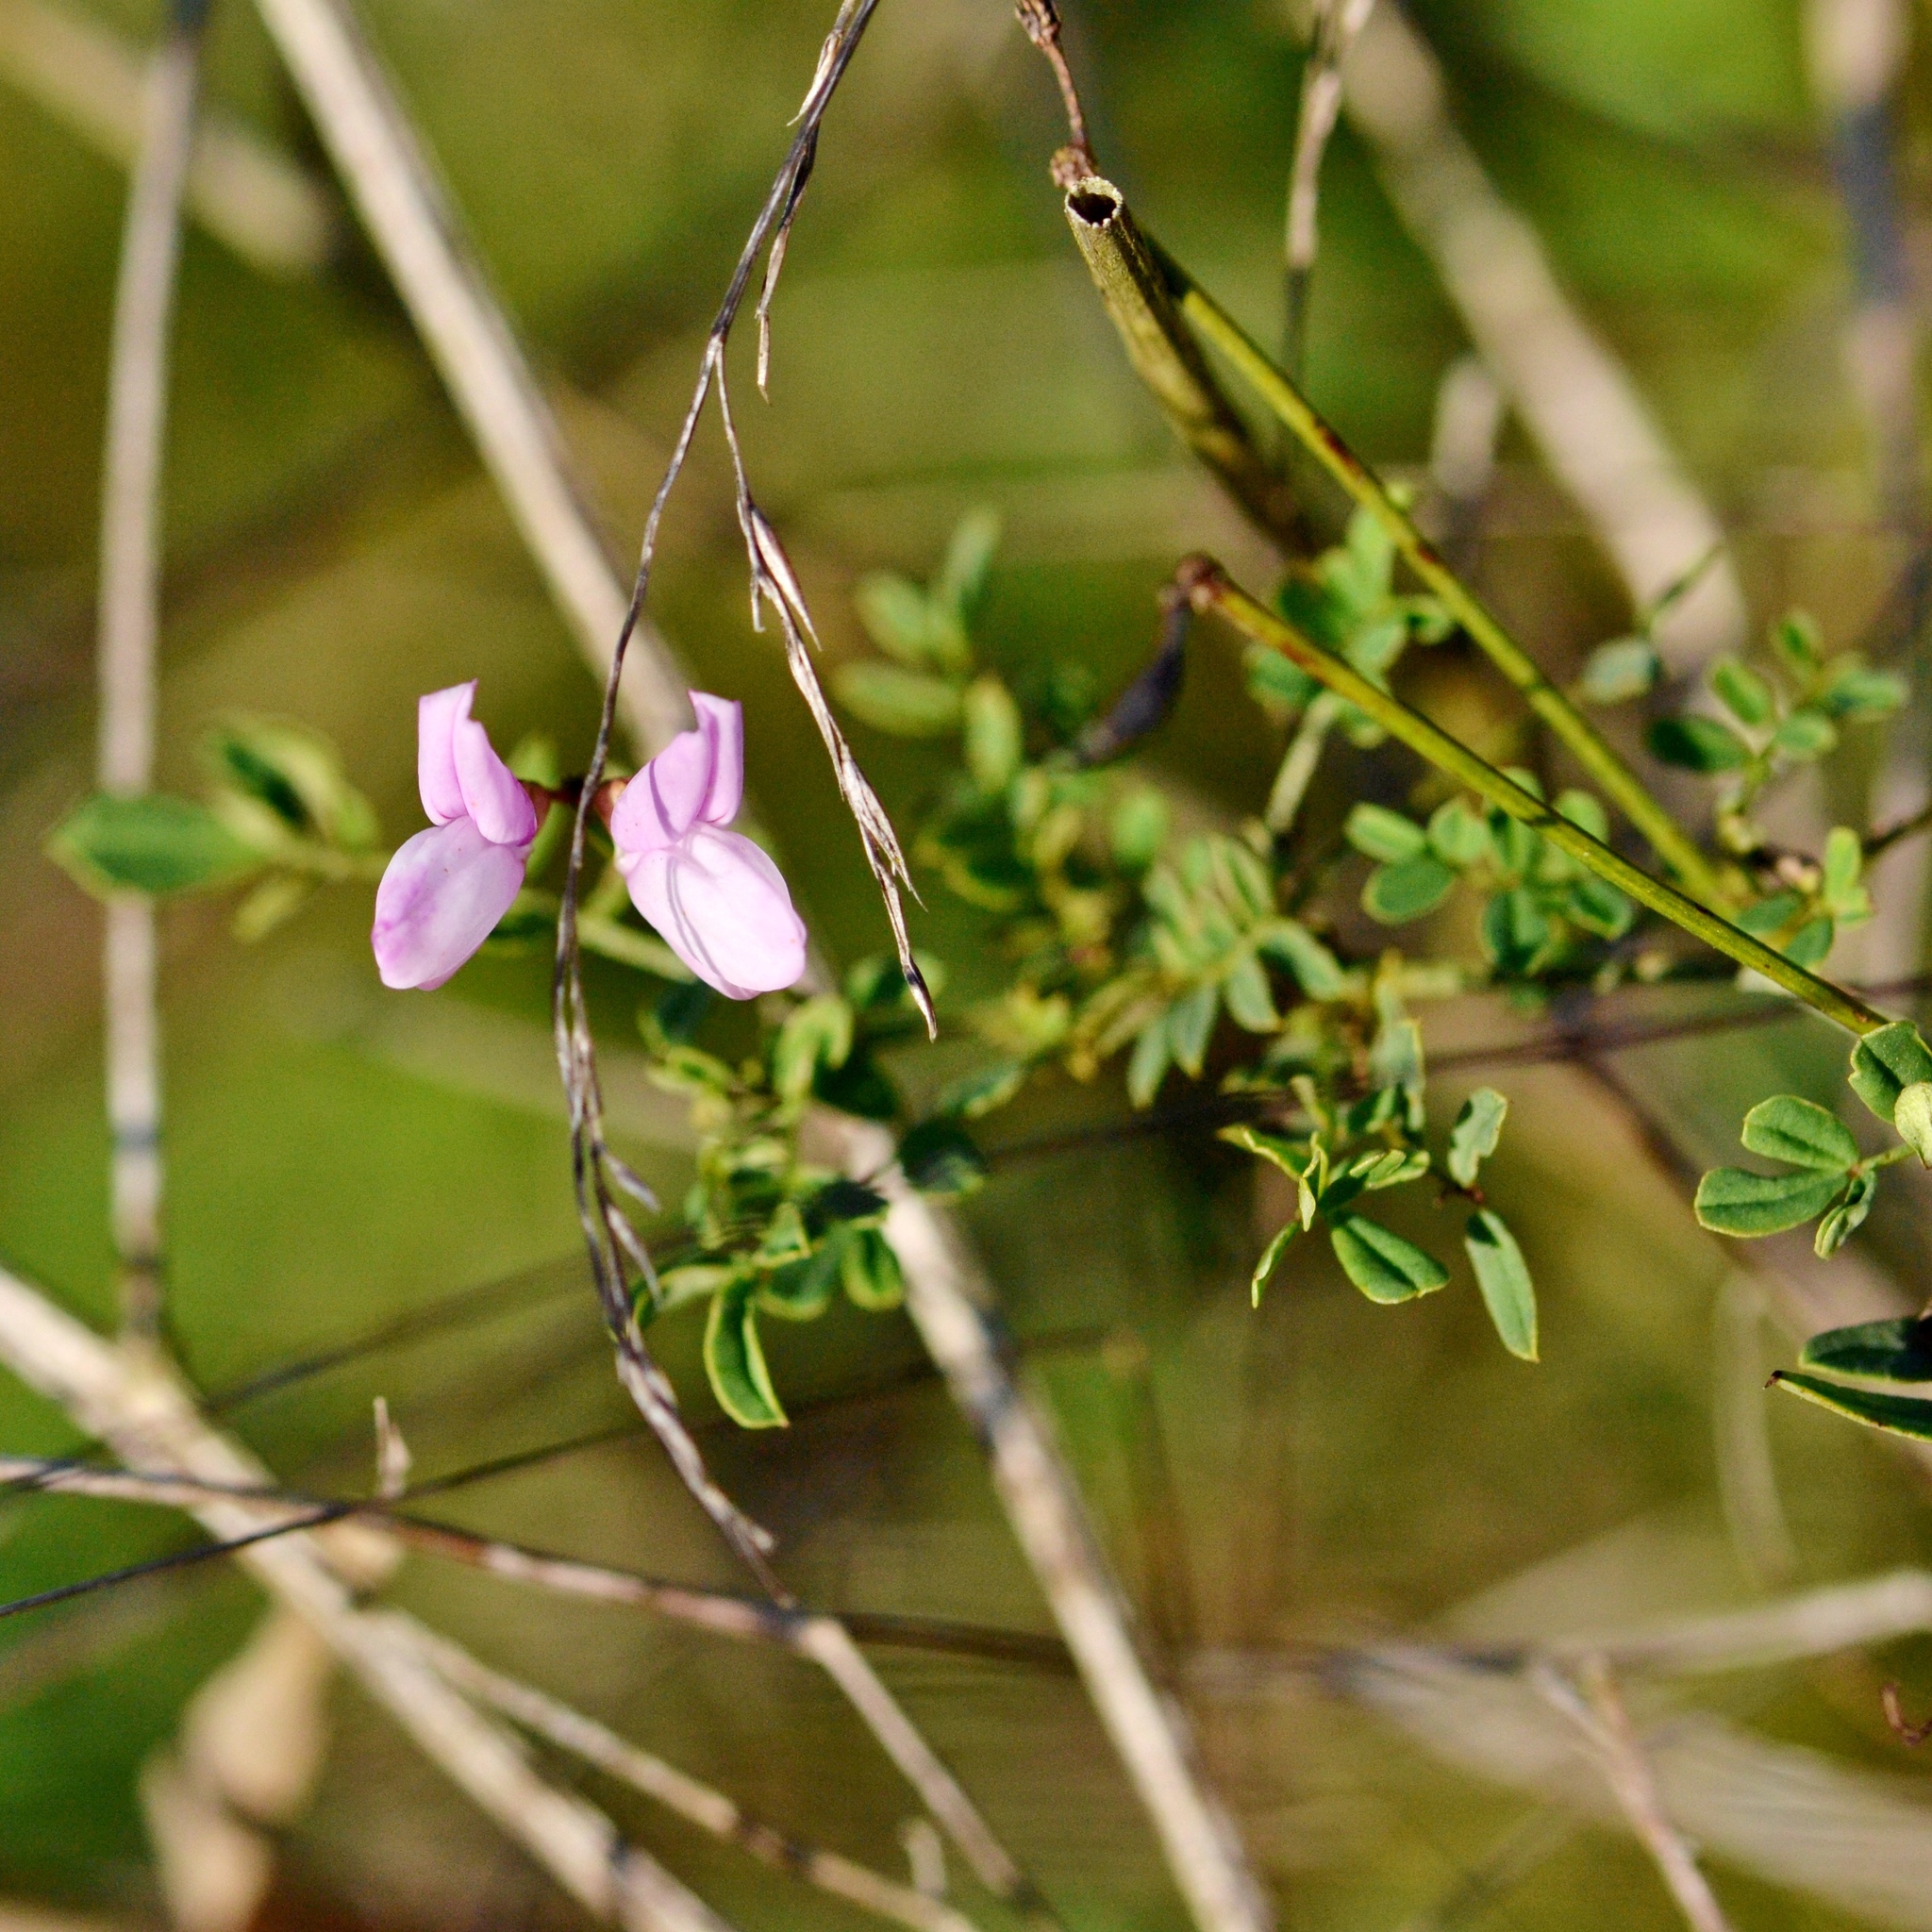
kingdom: Plantae
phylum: Tracheophyta
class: Magnoliopsida
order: Fabales
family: Fabaceae
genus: Ononis
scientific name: Ononis spinosa
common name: Spiny restharrow
